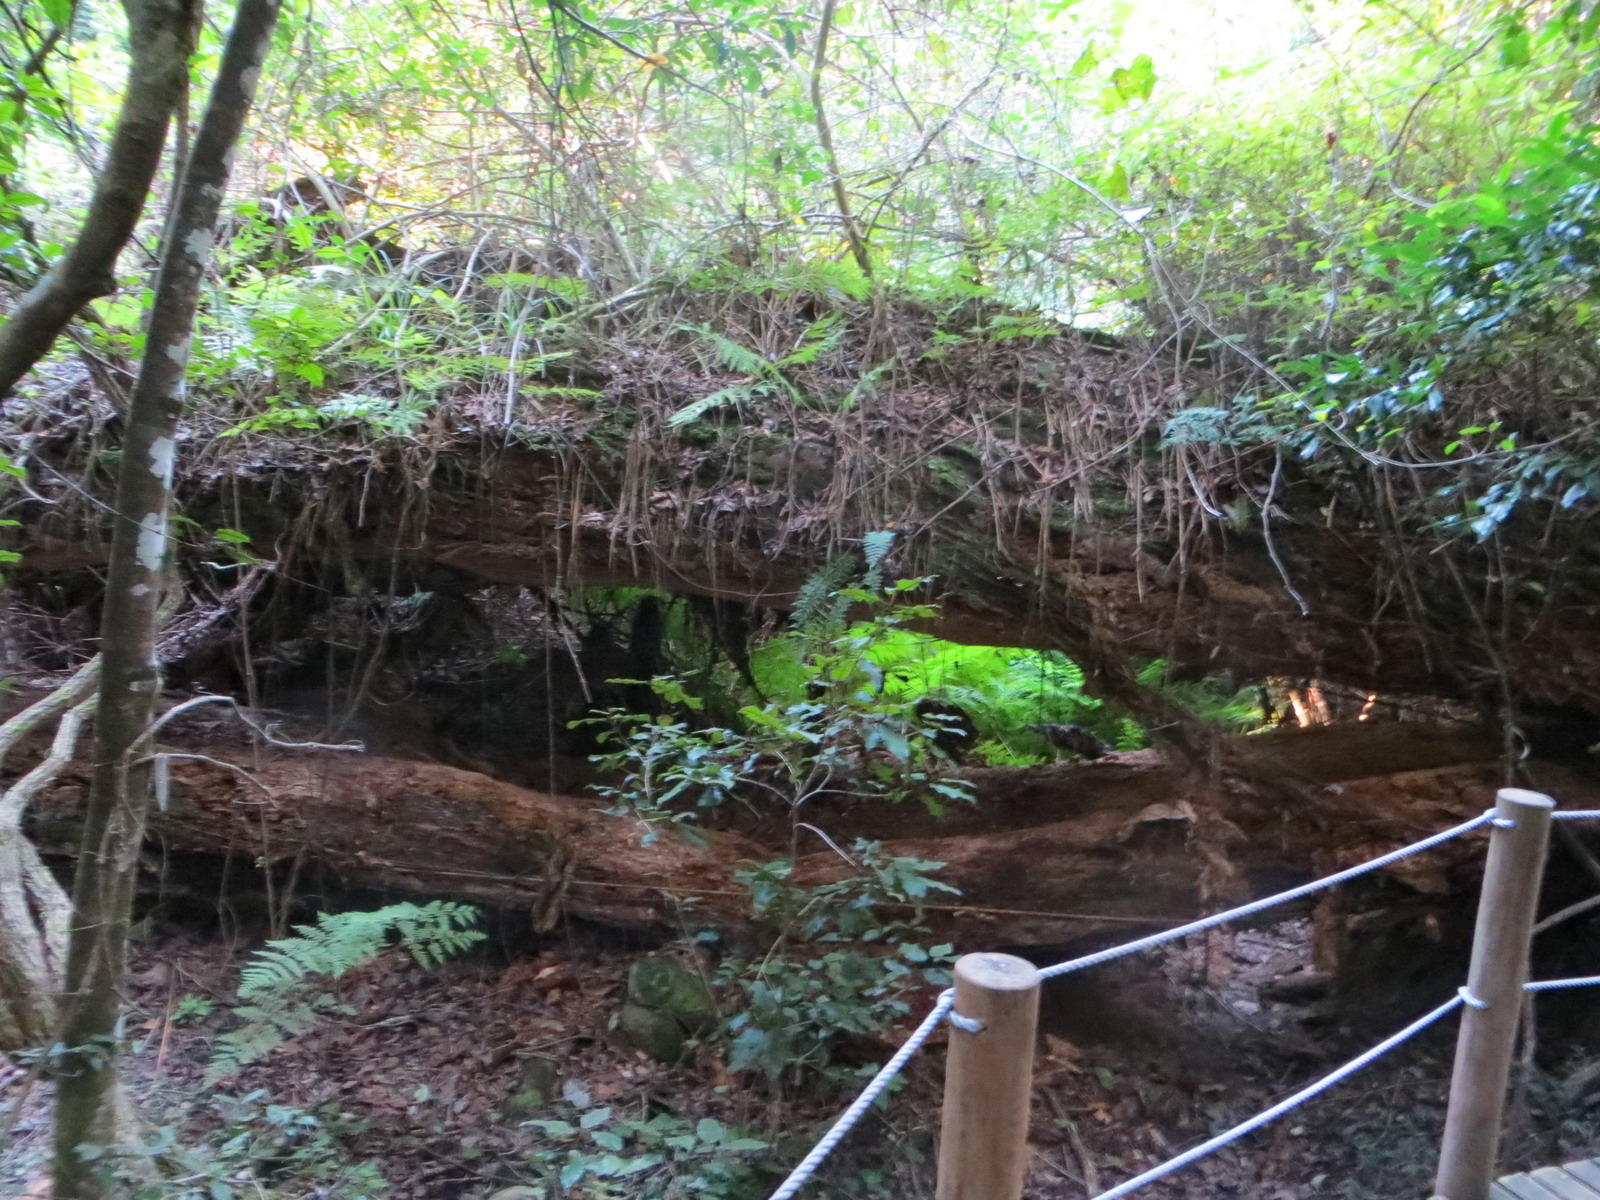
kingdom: Plantae
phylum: Tracheophyta
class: Pinopsida
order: Pinales
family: Podocarpaceae
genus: Afrocarpus
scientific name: Afrocarpus falcatus
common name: Bastard yellowwood
